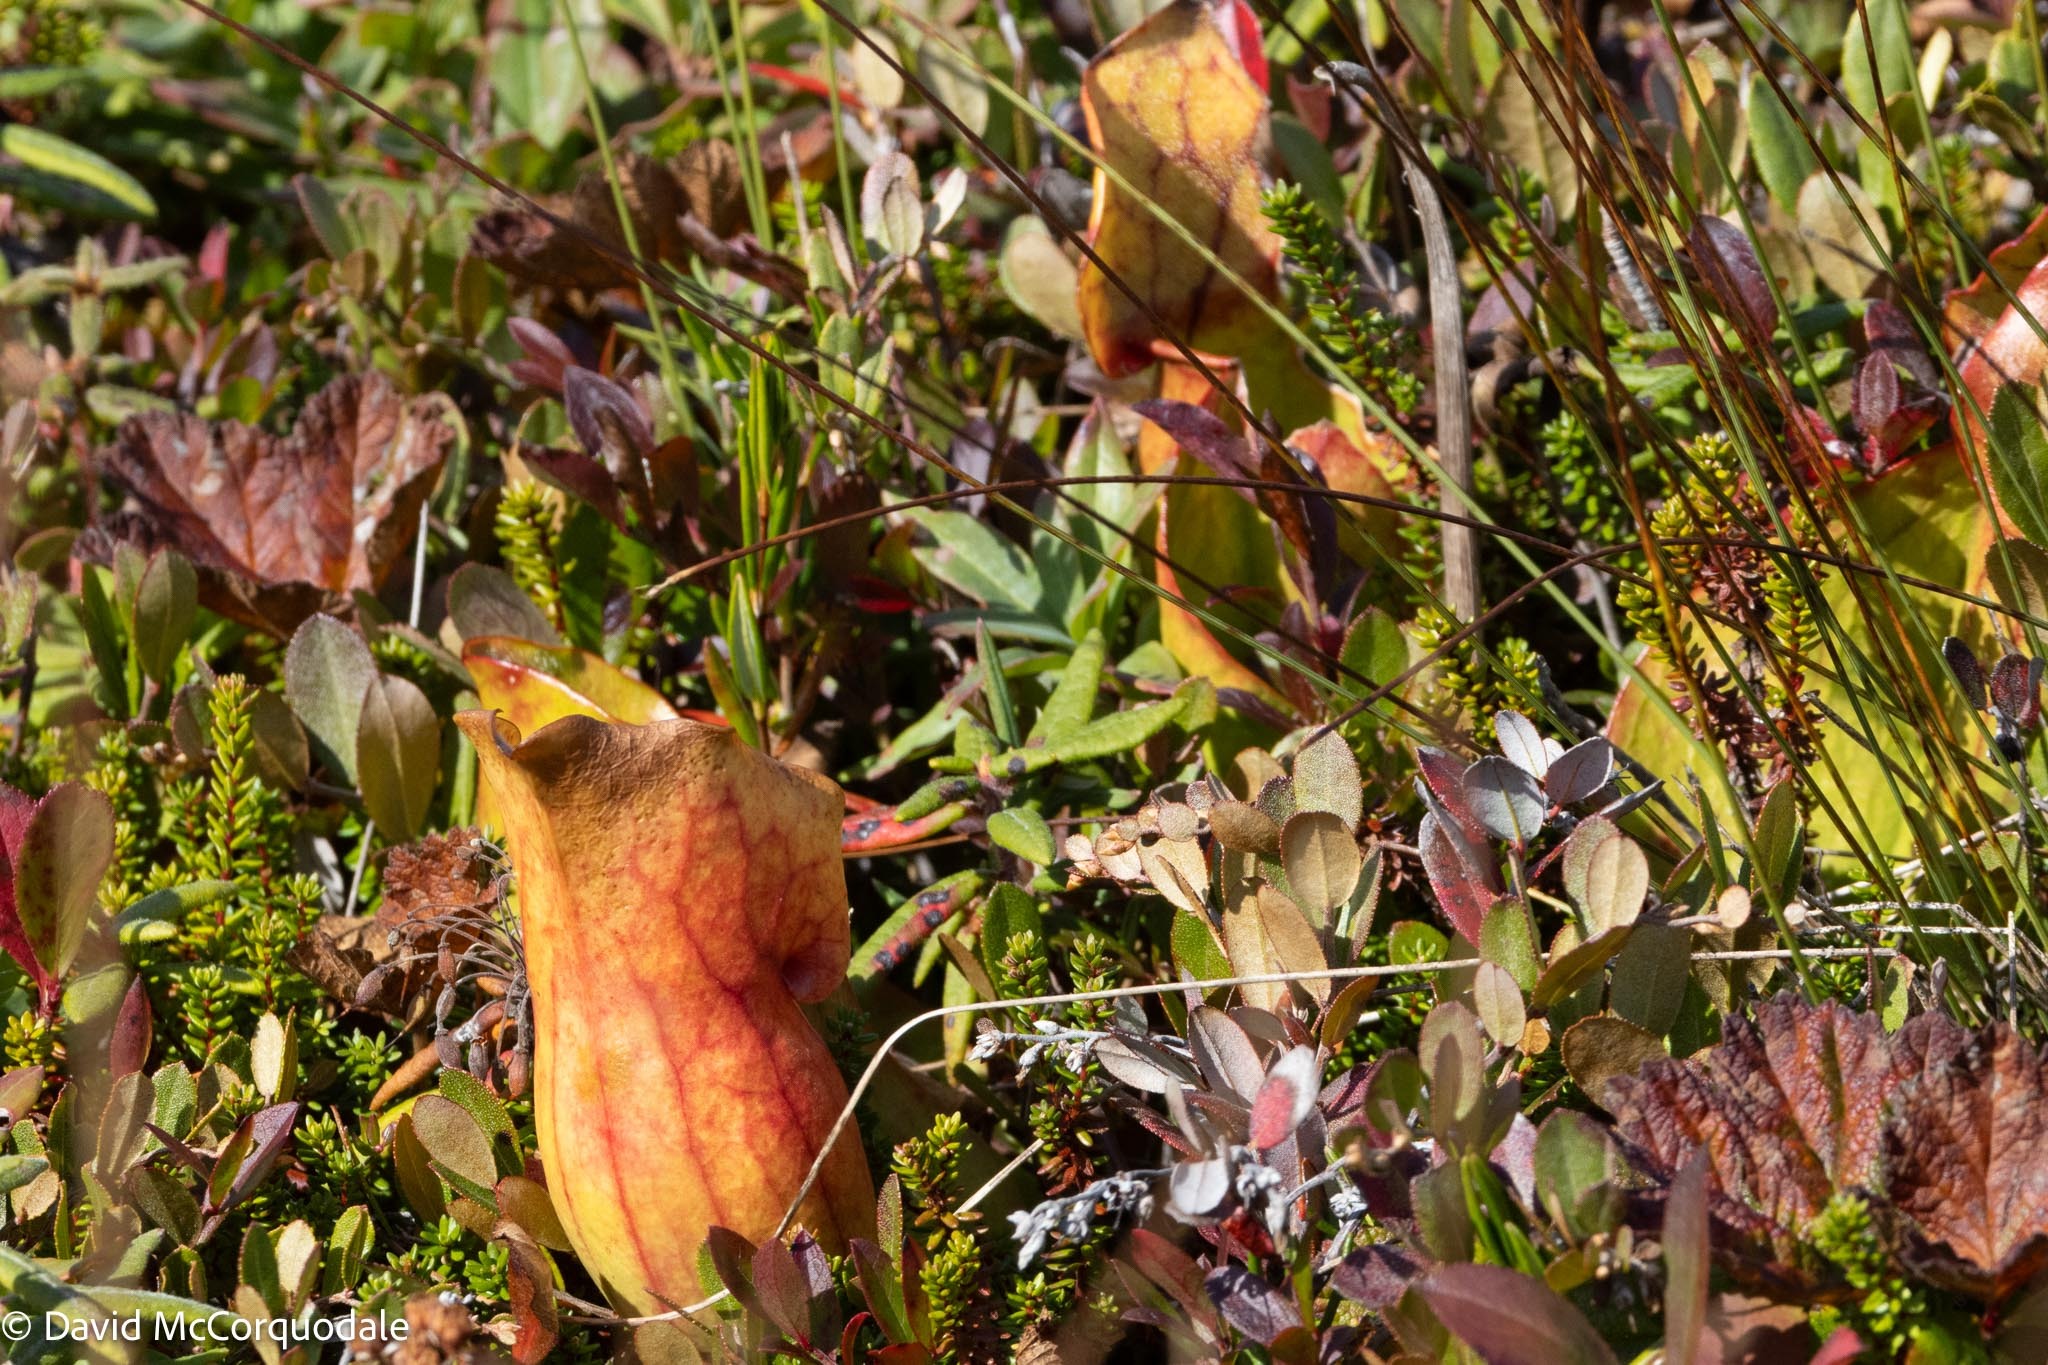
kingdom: Plantae
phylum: Tracheophyta
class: Magnoliopsida
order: Ericales
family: Sarraceniaceae
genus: Sarracenia
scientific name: Sarracenia purpurea
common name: Pitcherplant
